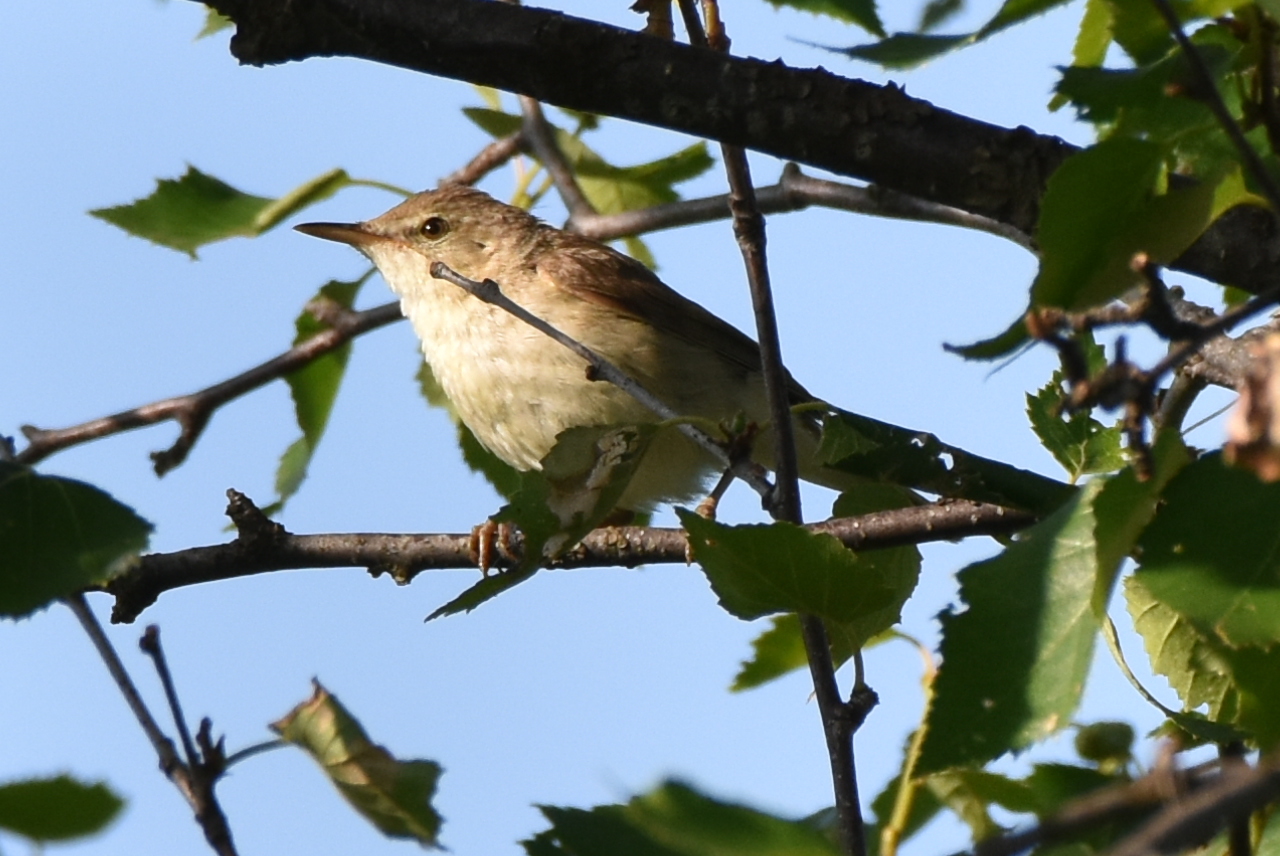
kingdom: Animalia
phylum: Chordata
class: Aves
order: Passeriformes
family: Acrocephalidae
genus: Acrocephalus
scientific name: Acrocephalus dumetorum
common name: Blyth's reed warbler
